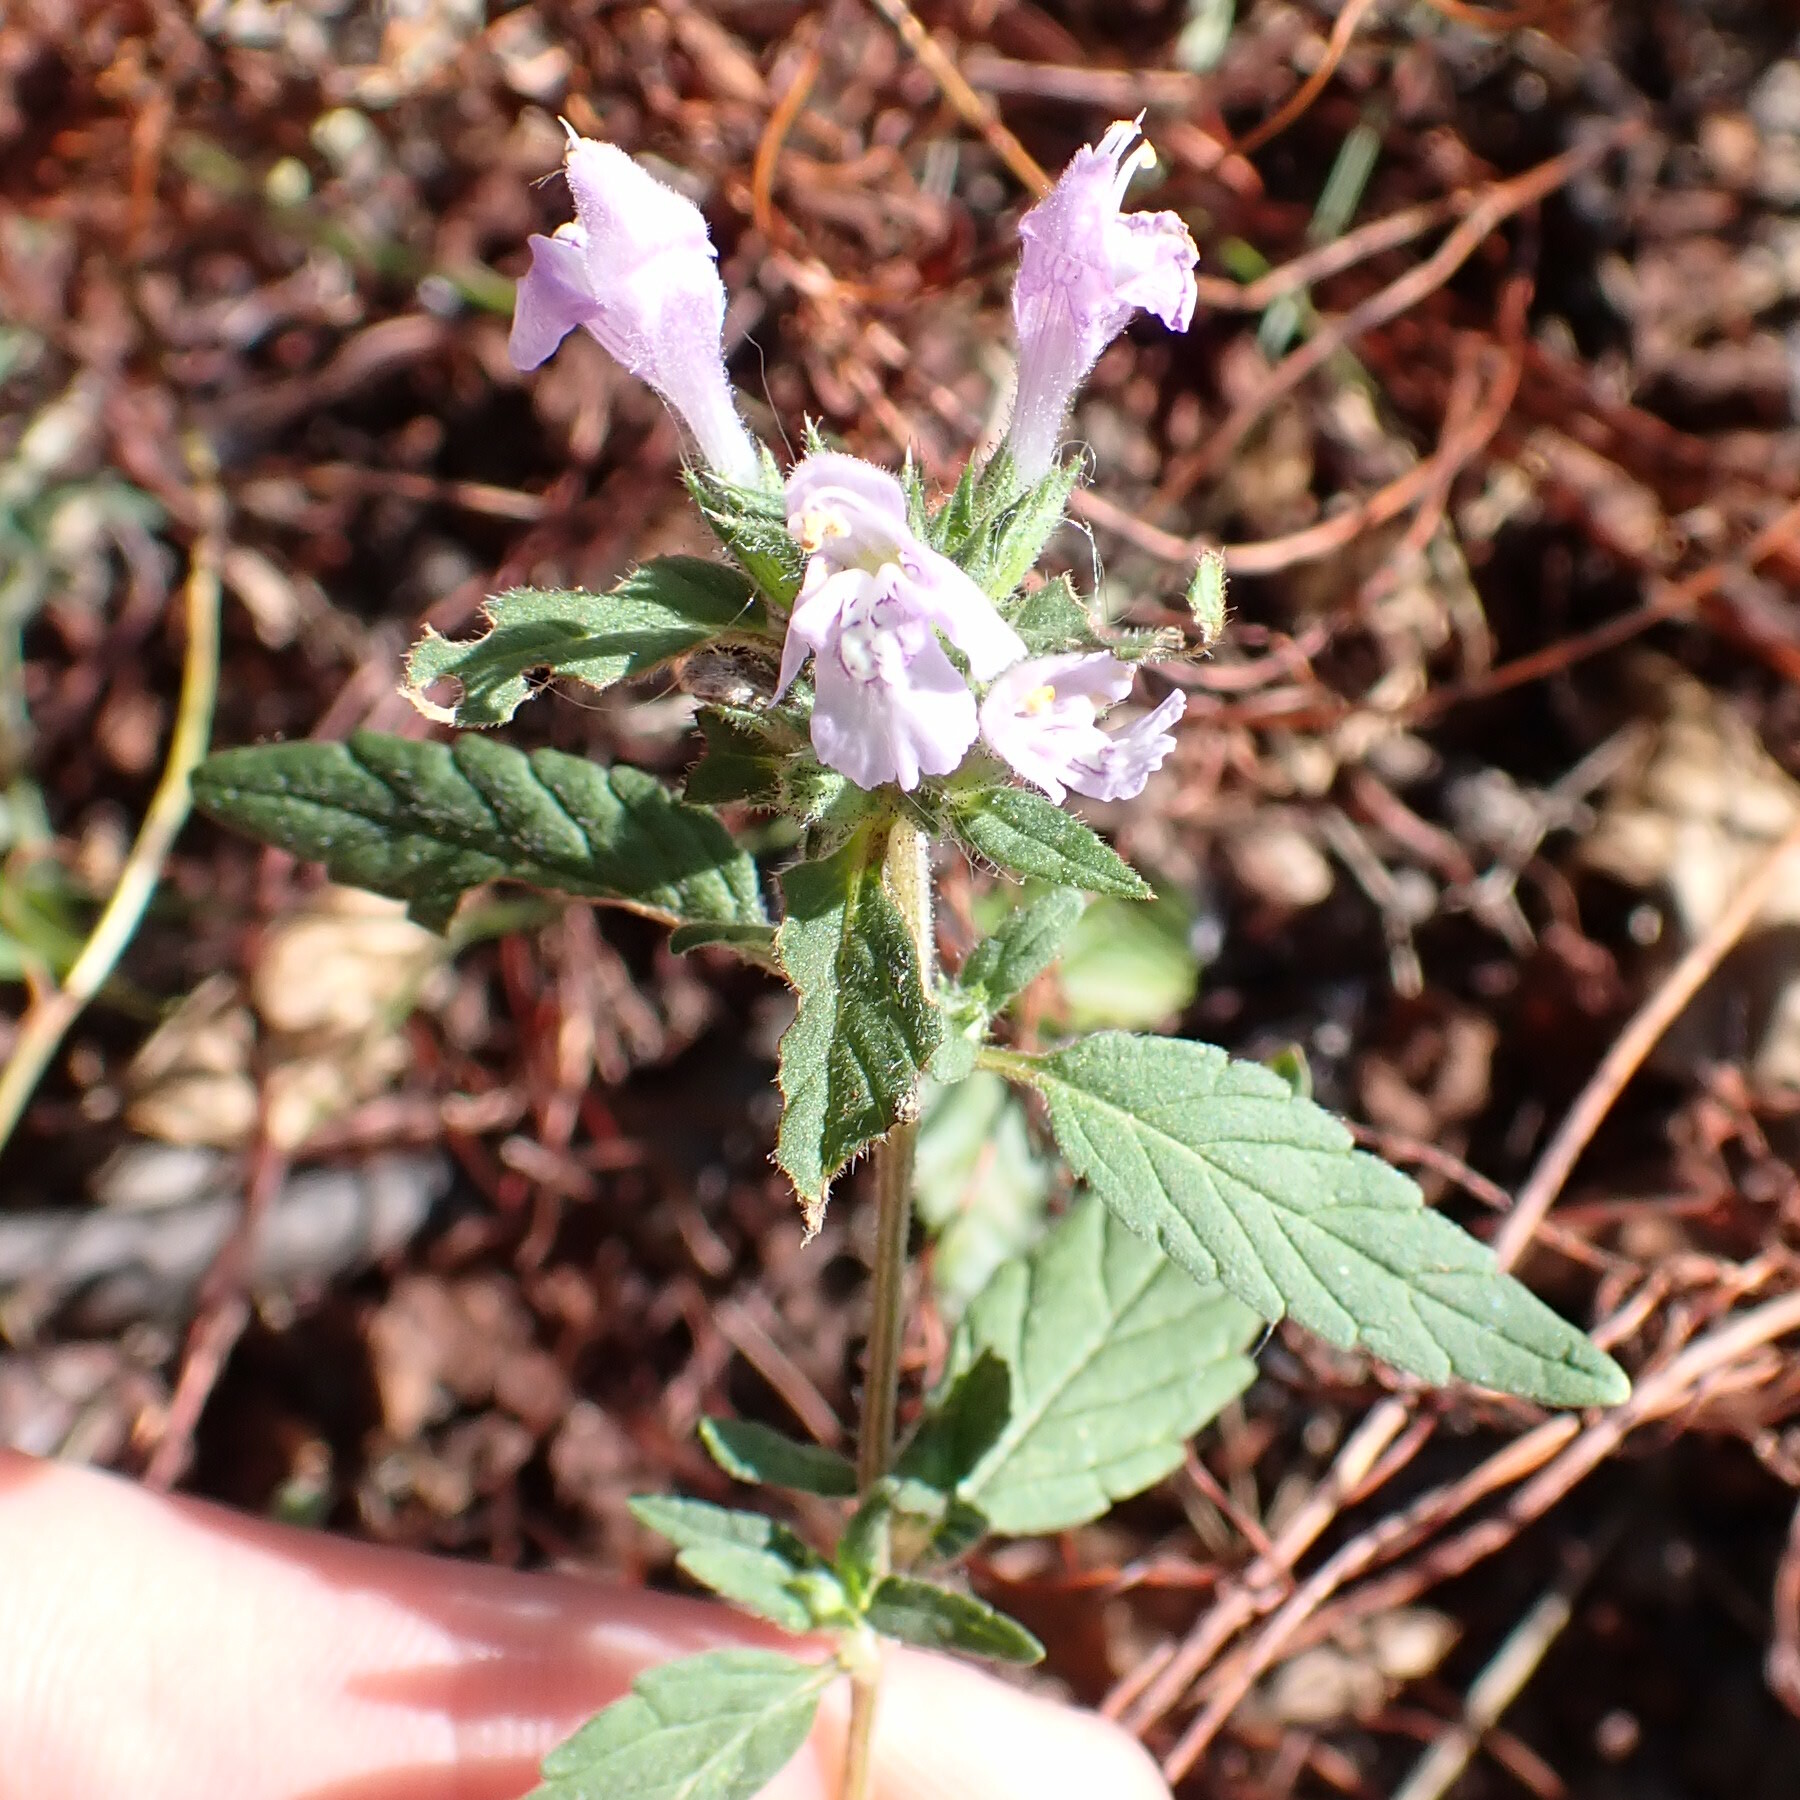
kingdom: Plantae
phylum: Tracheophyta
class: Magnoliopsida
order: Lamiales
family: Lamiaceae
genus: Galeopsis
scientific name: Galeopsis ladanum
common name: Broad-leaved hemp-nettle
